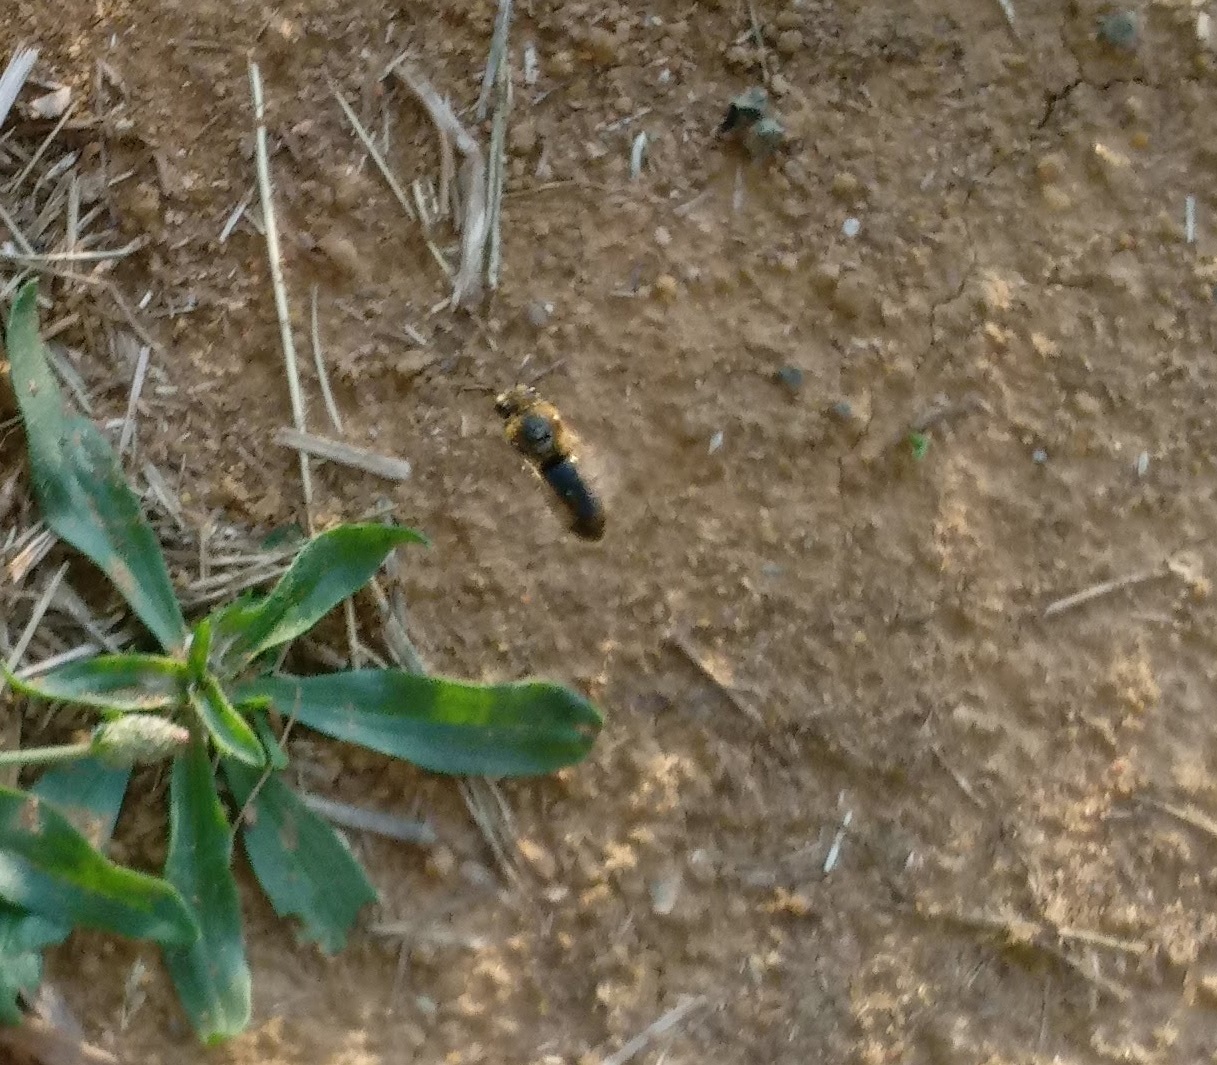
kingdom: Animalia
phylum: Arthropoda
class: Insecta
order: Hymenoptera
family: Colletidae
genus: Colletes
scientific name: Colletes thoracicus
